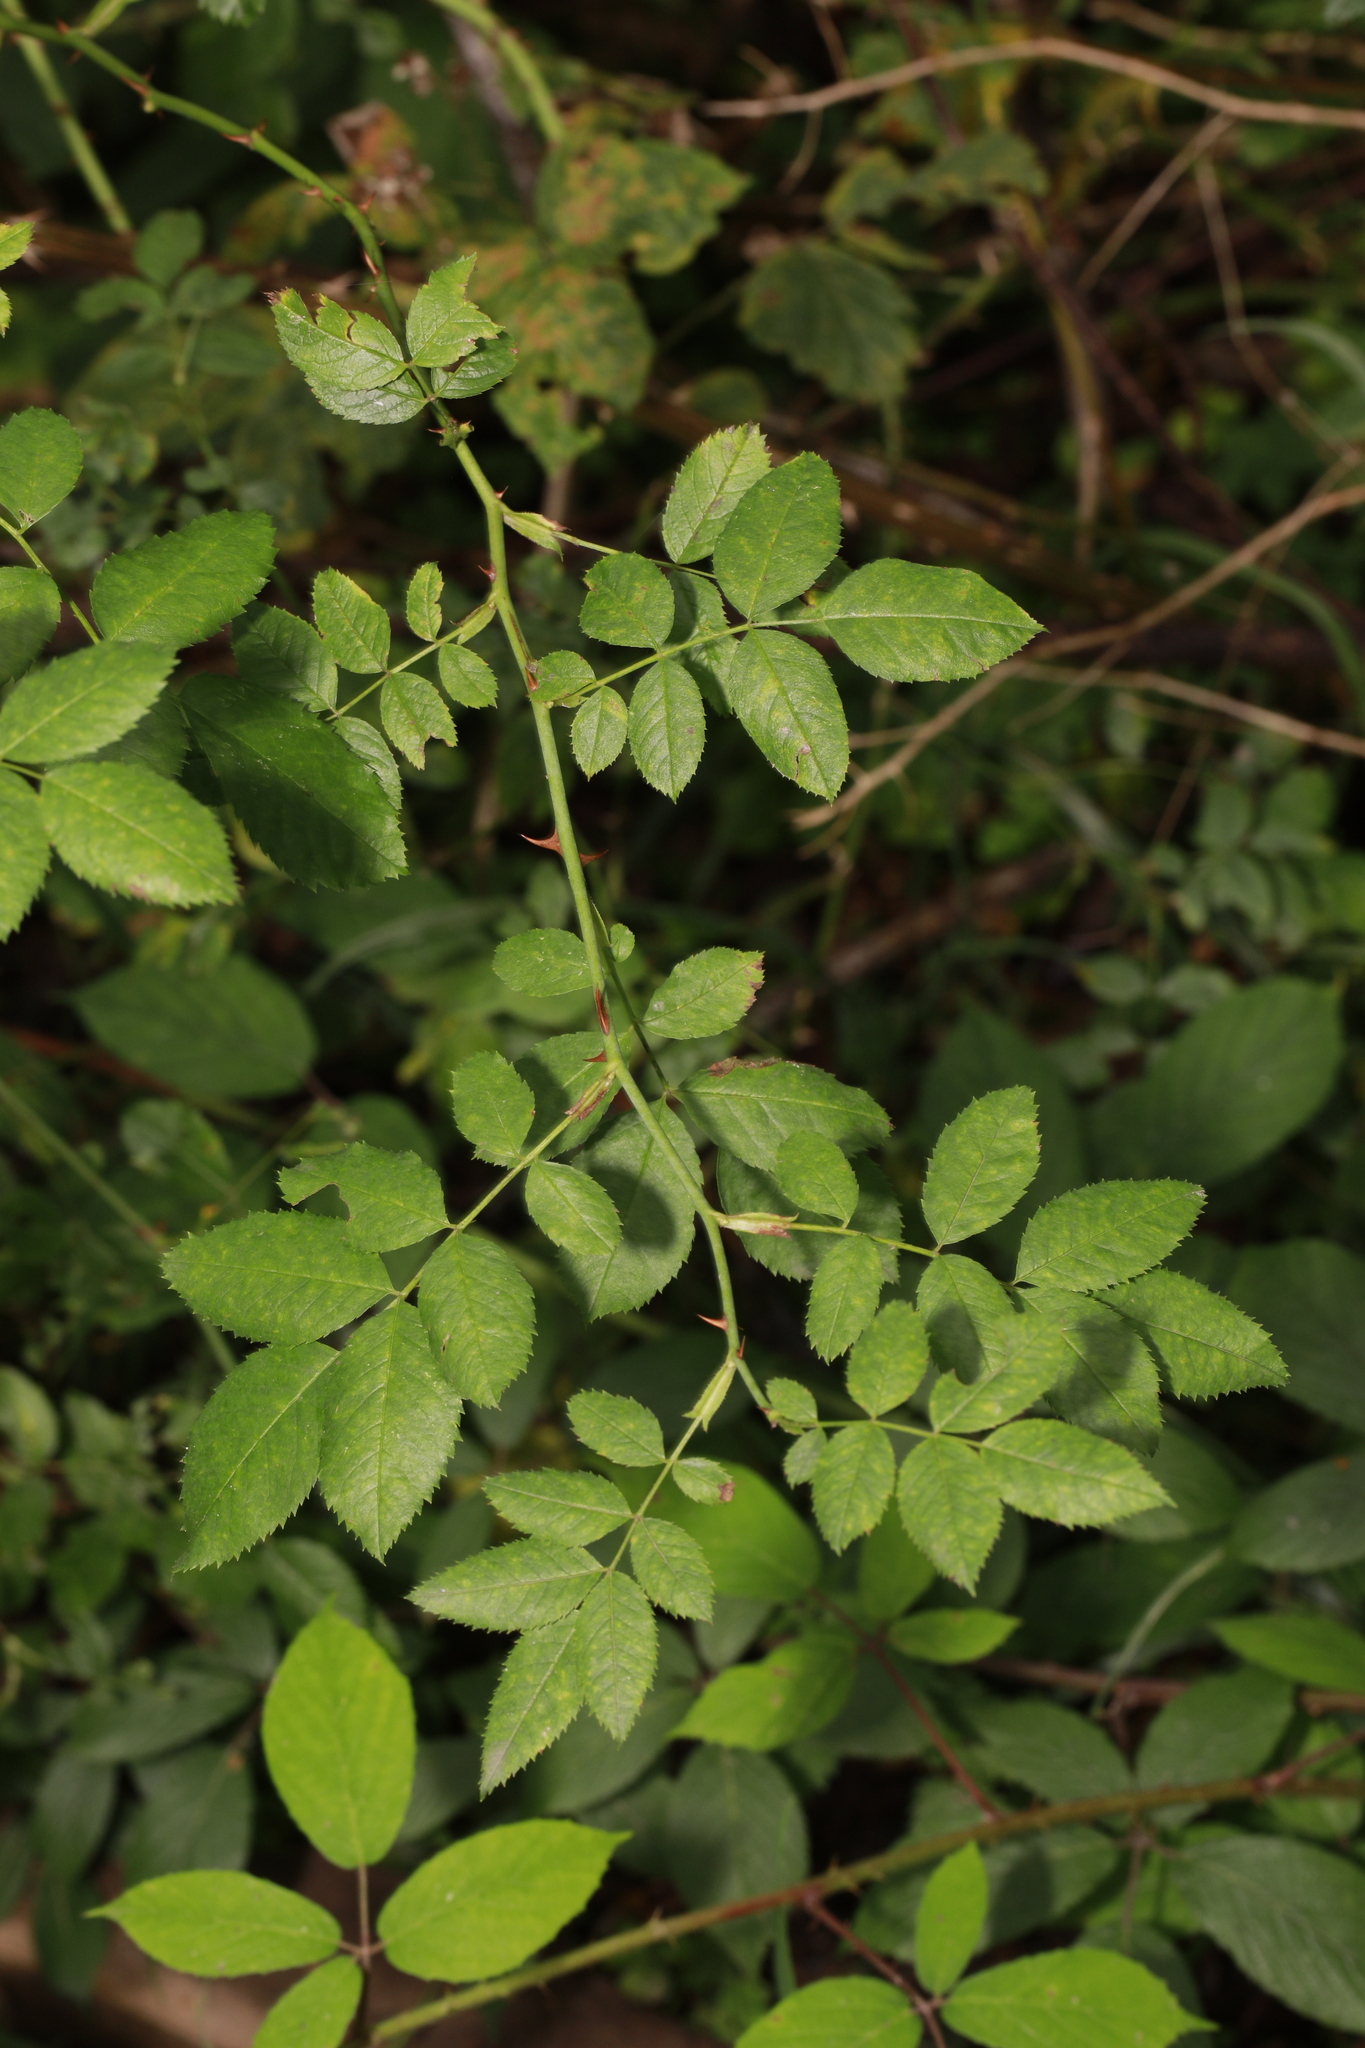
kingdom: Plantae
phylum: Tracheophyta
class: Magnoliopsida
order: Rosales
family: Rosaceae
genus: Rosa
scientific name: Rosa canina
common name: Dog rose
